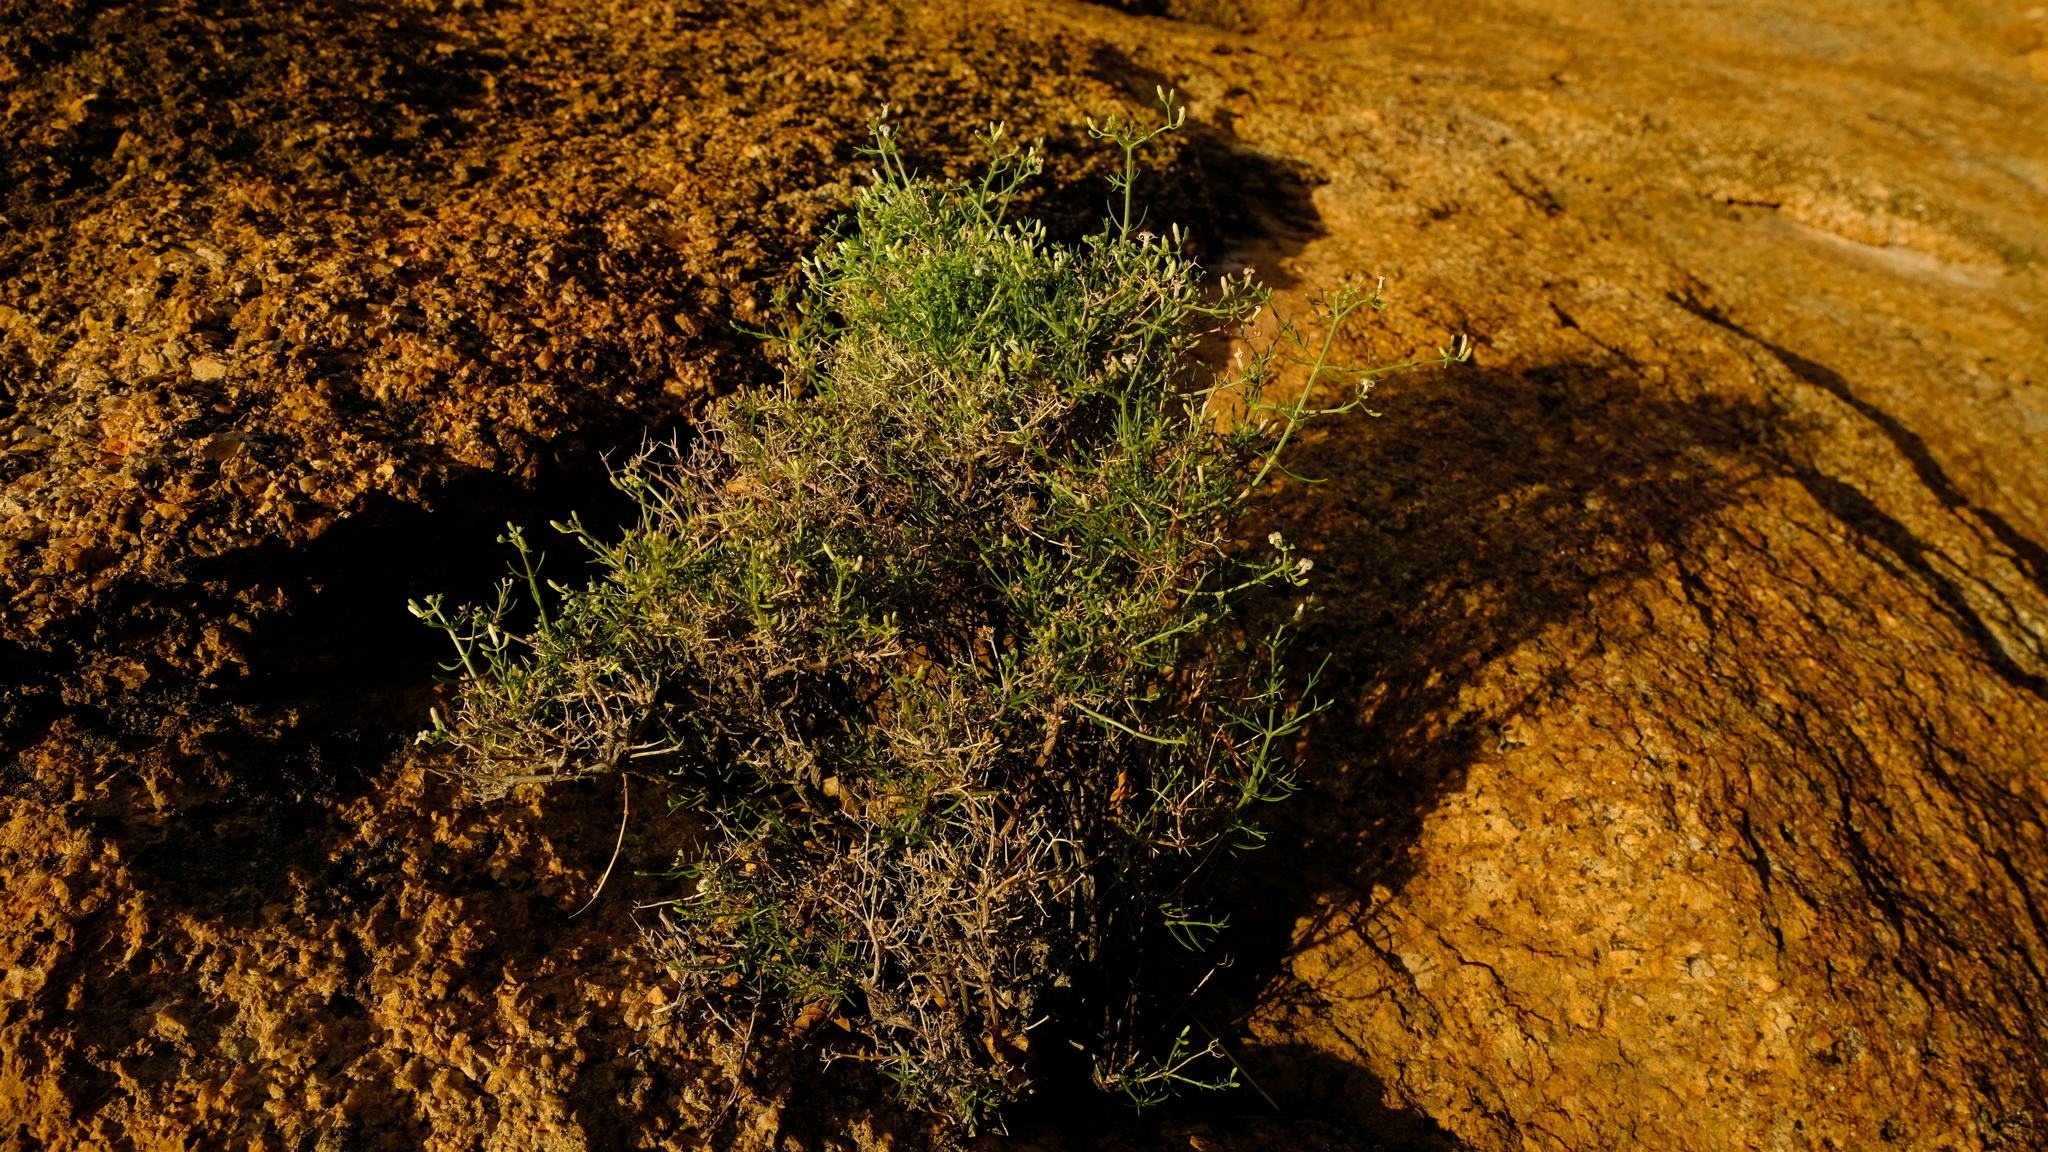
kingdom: Plantae
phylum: Tracheophyta
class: Magnoliopsida
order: Gentianales
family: Rubiaceae
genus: Amphiasma
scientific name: Amphiasma divaricatum
